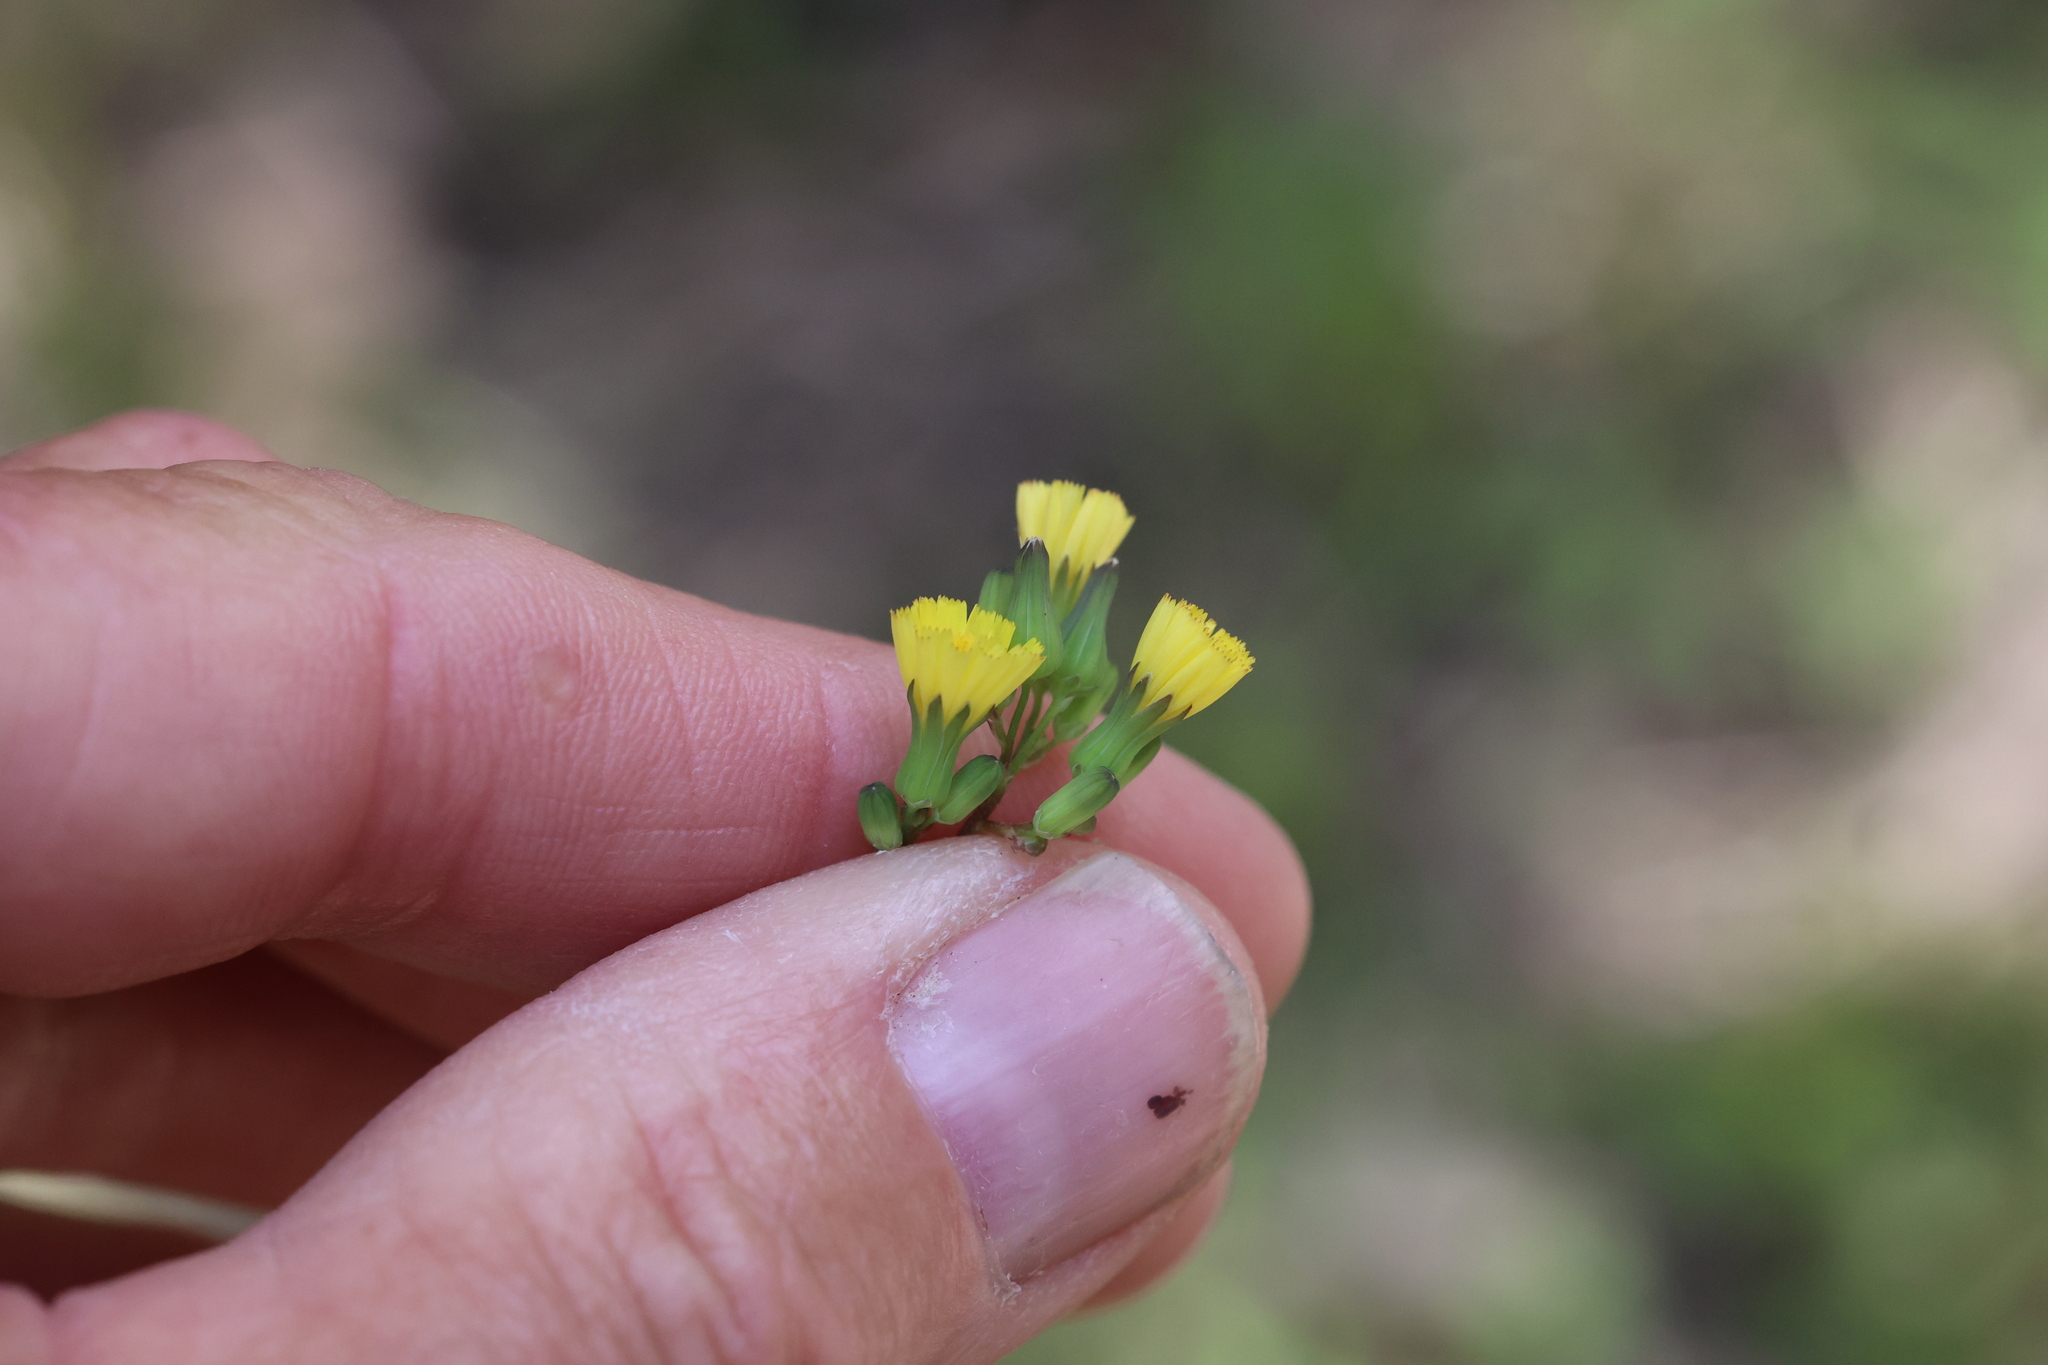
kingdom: Plantae
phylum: Tracheophyta
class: Magnoliopsida
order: Asterales
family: Asteraceae
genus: Youngia
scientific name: Youngia japonica
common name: Oriental false hawksbeard
